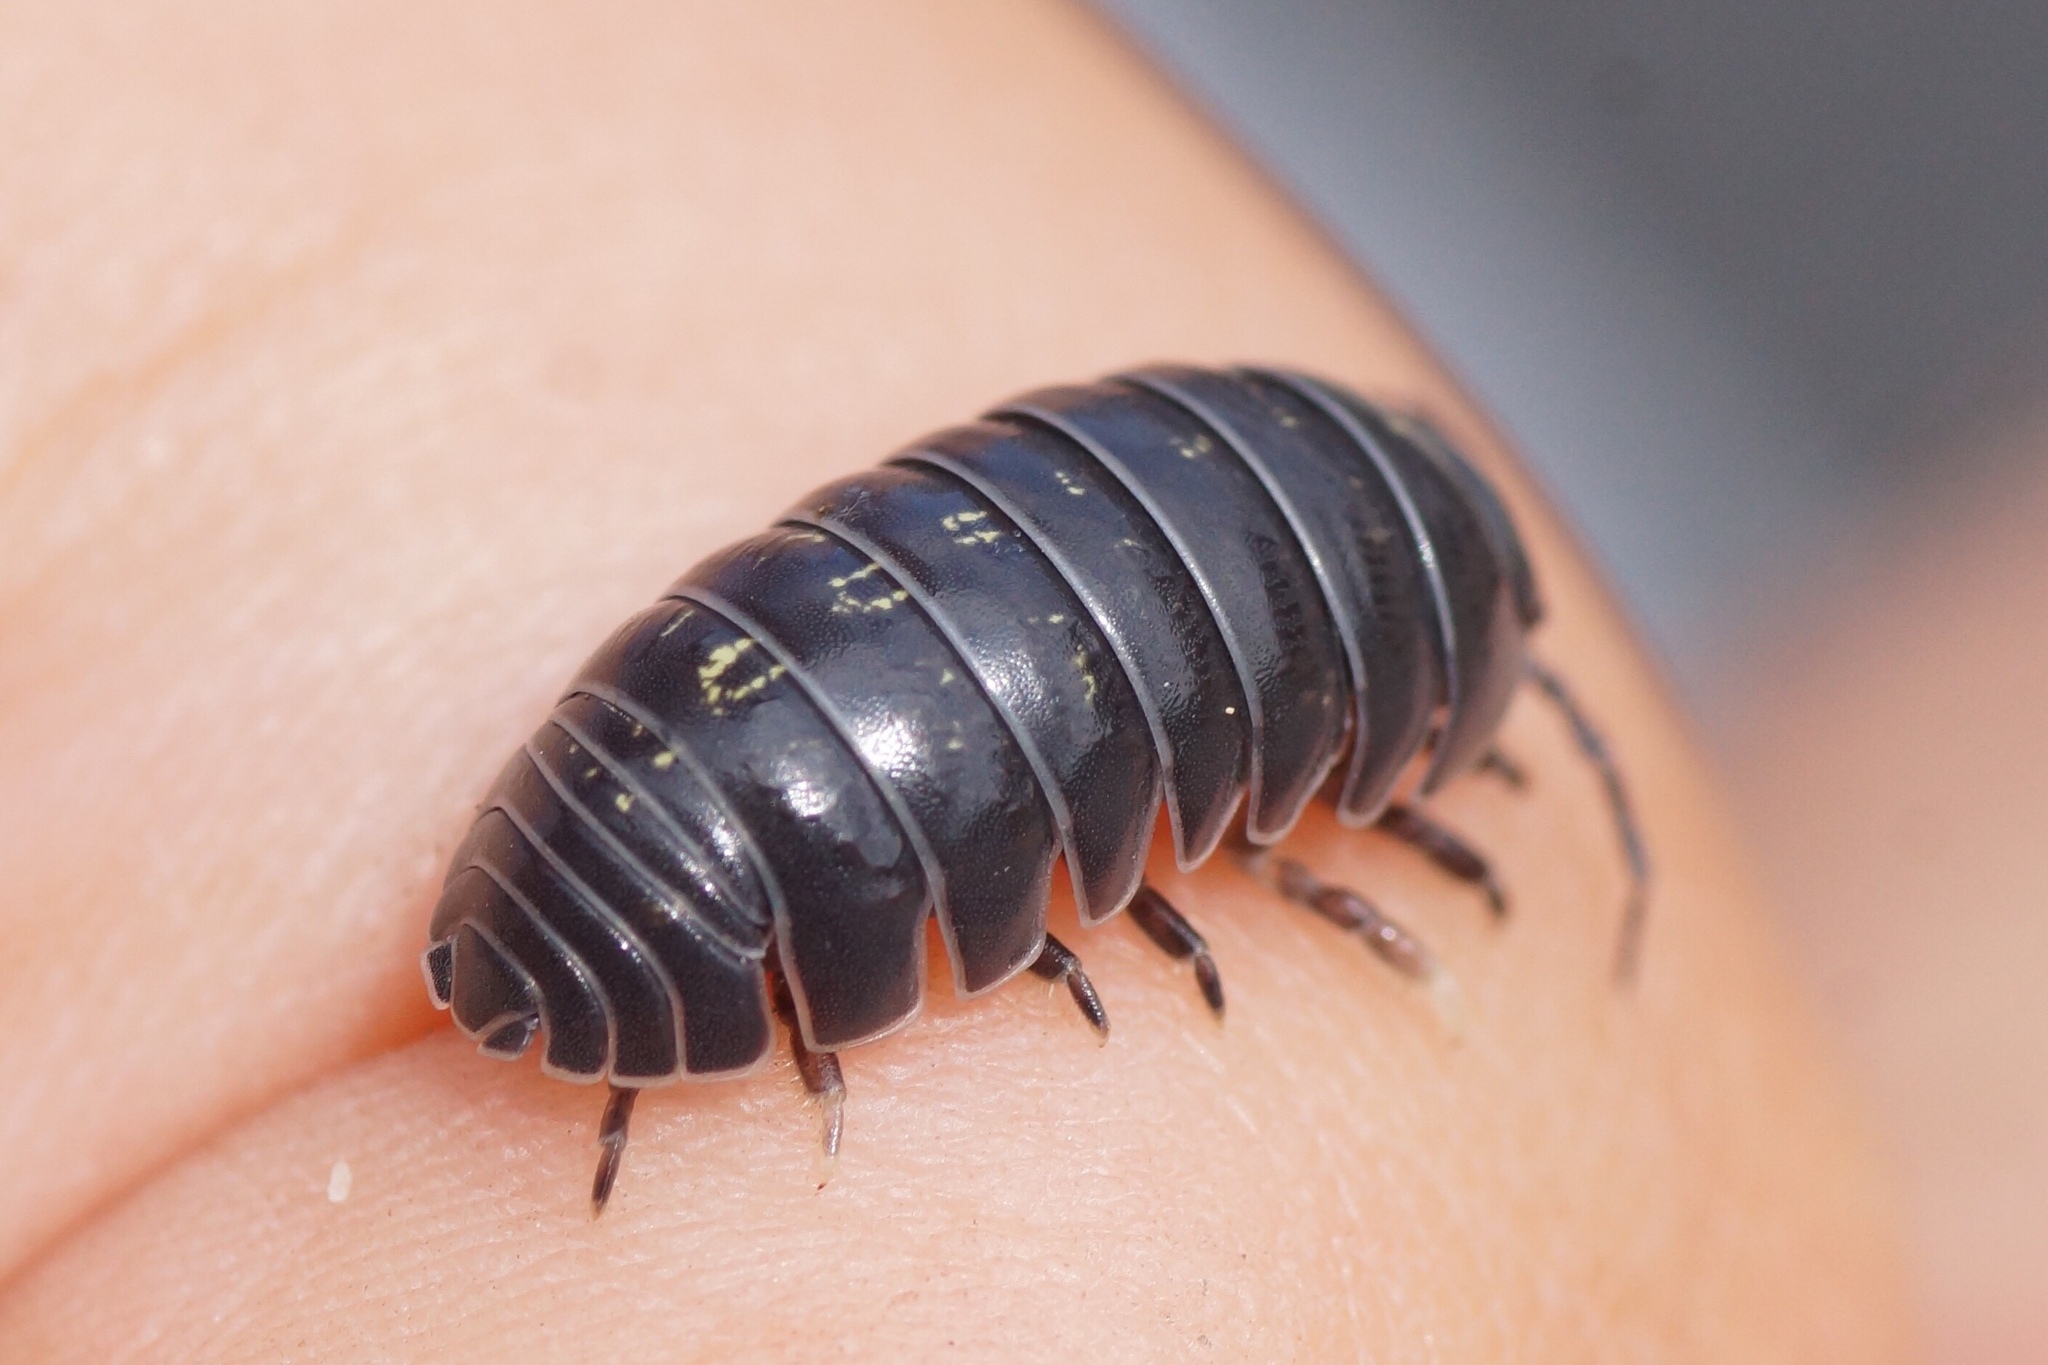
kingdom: Animalia
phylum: Arthropoda
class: Malacostraca
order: Isopoda
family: Armadillidiidae
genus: Armadillidium
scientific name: Armadillidium vulgare
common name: Common pill woodlouse
